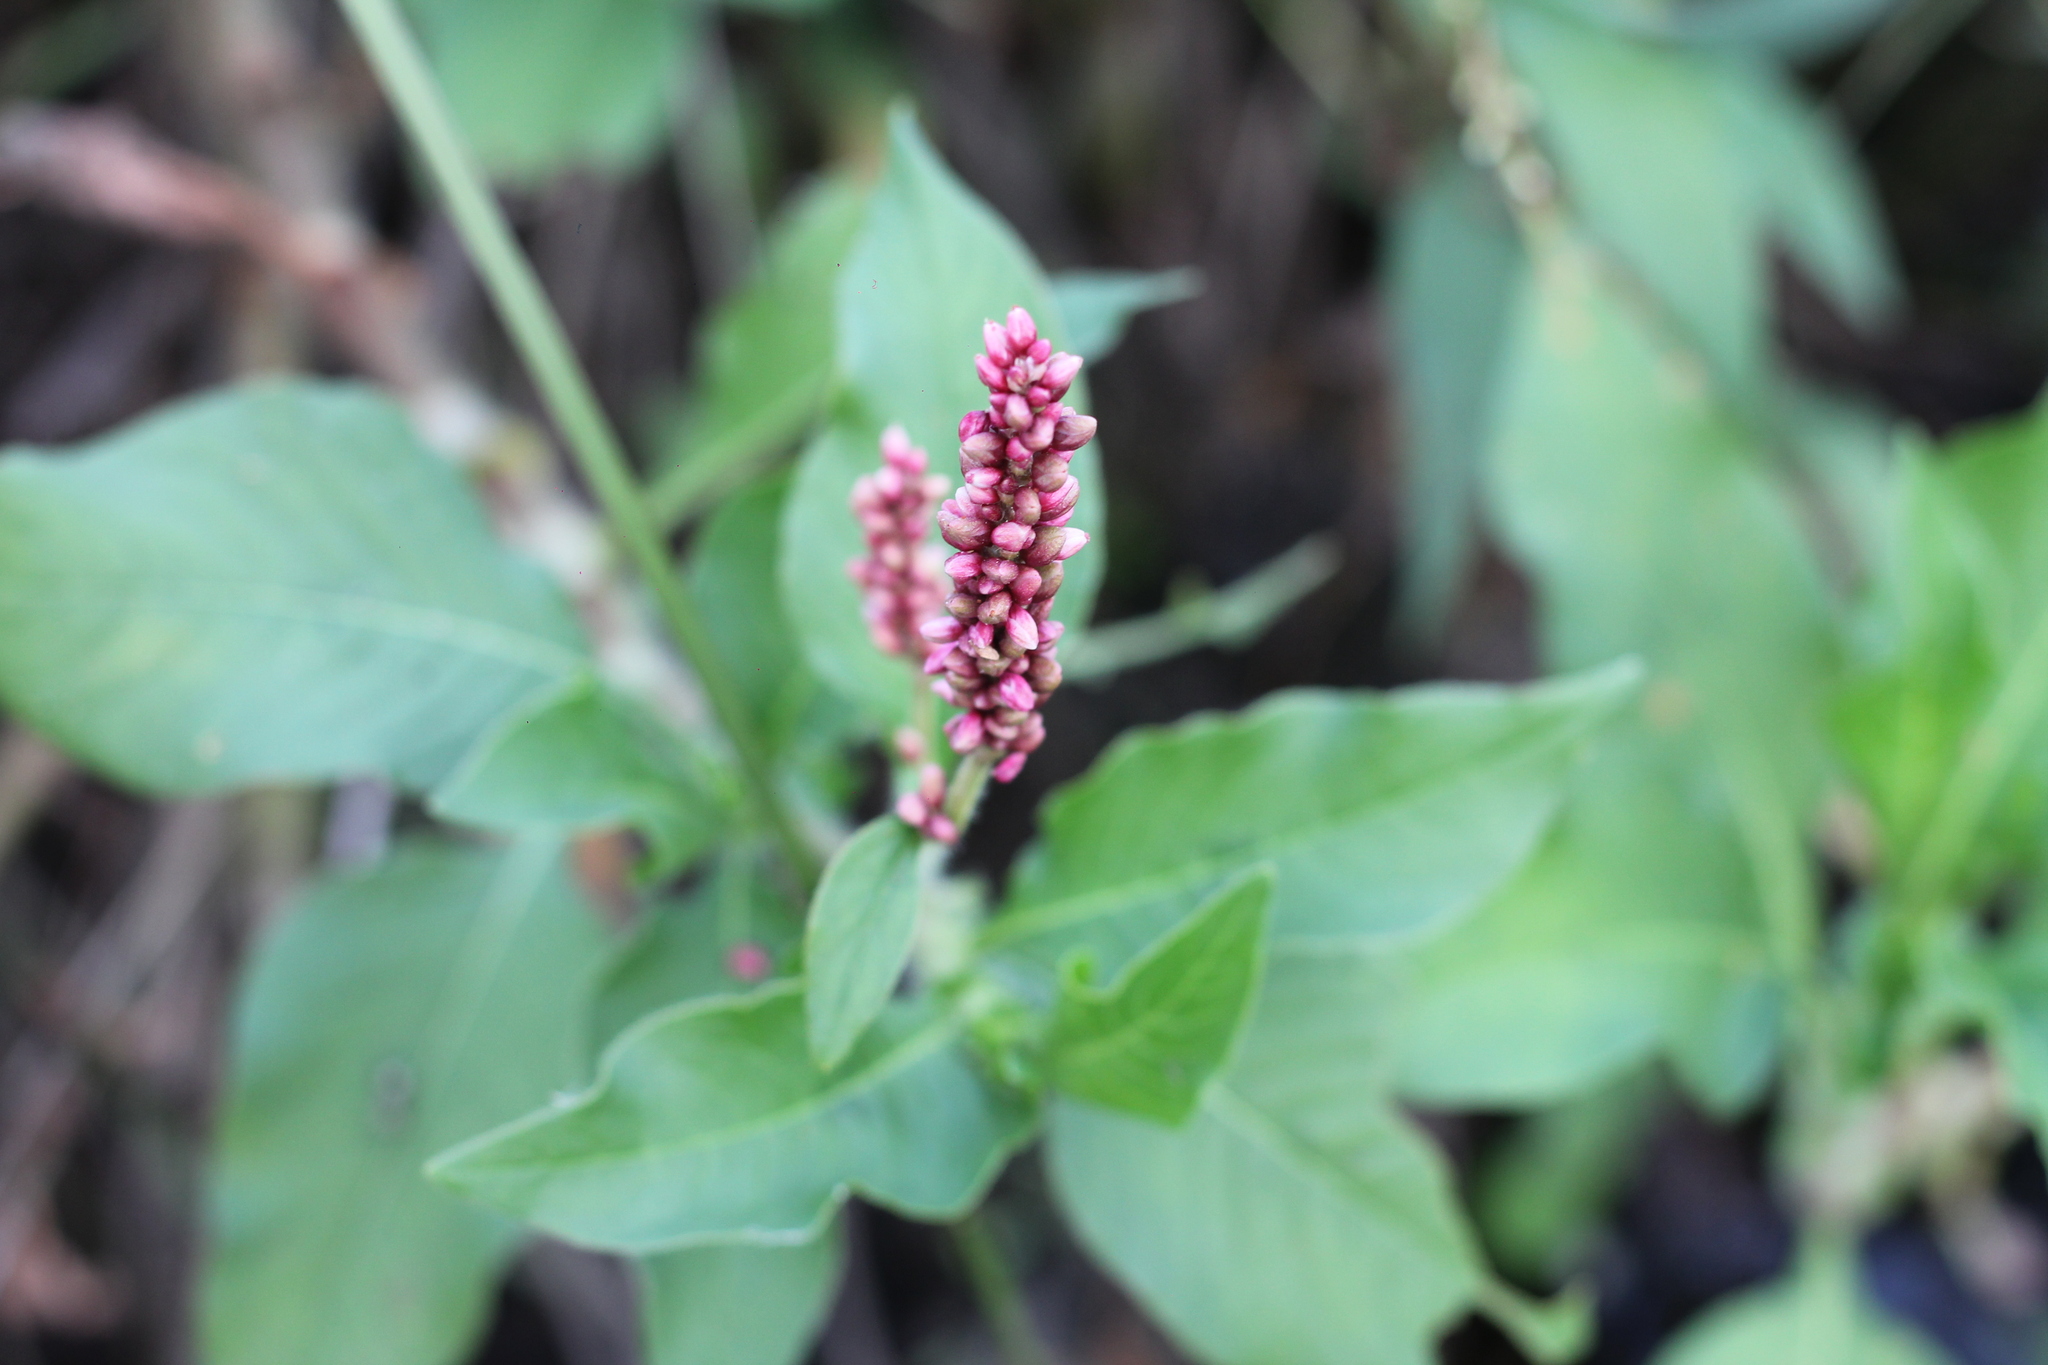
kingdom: Plantae
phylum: Tracheophyta
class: Magnoliopsida
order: Caryophyllales
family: Polygonaceae
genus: Persicaria
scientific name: Persicaria hispida
